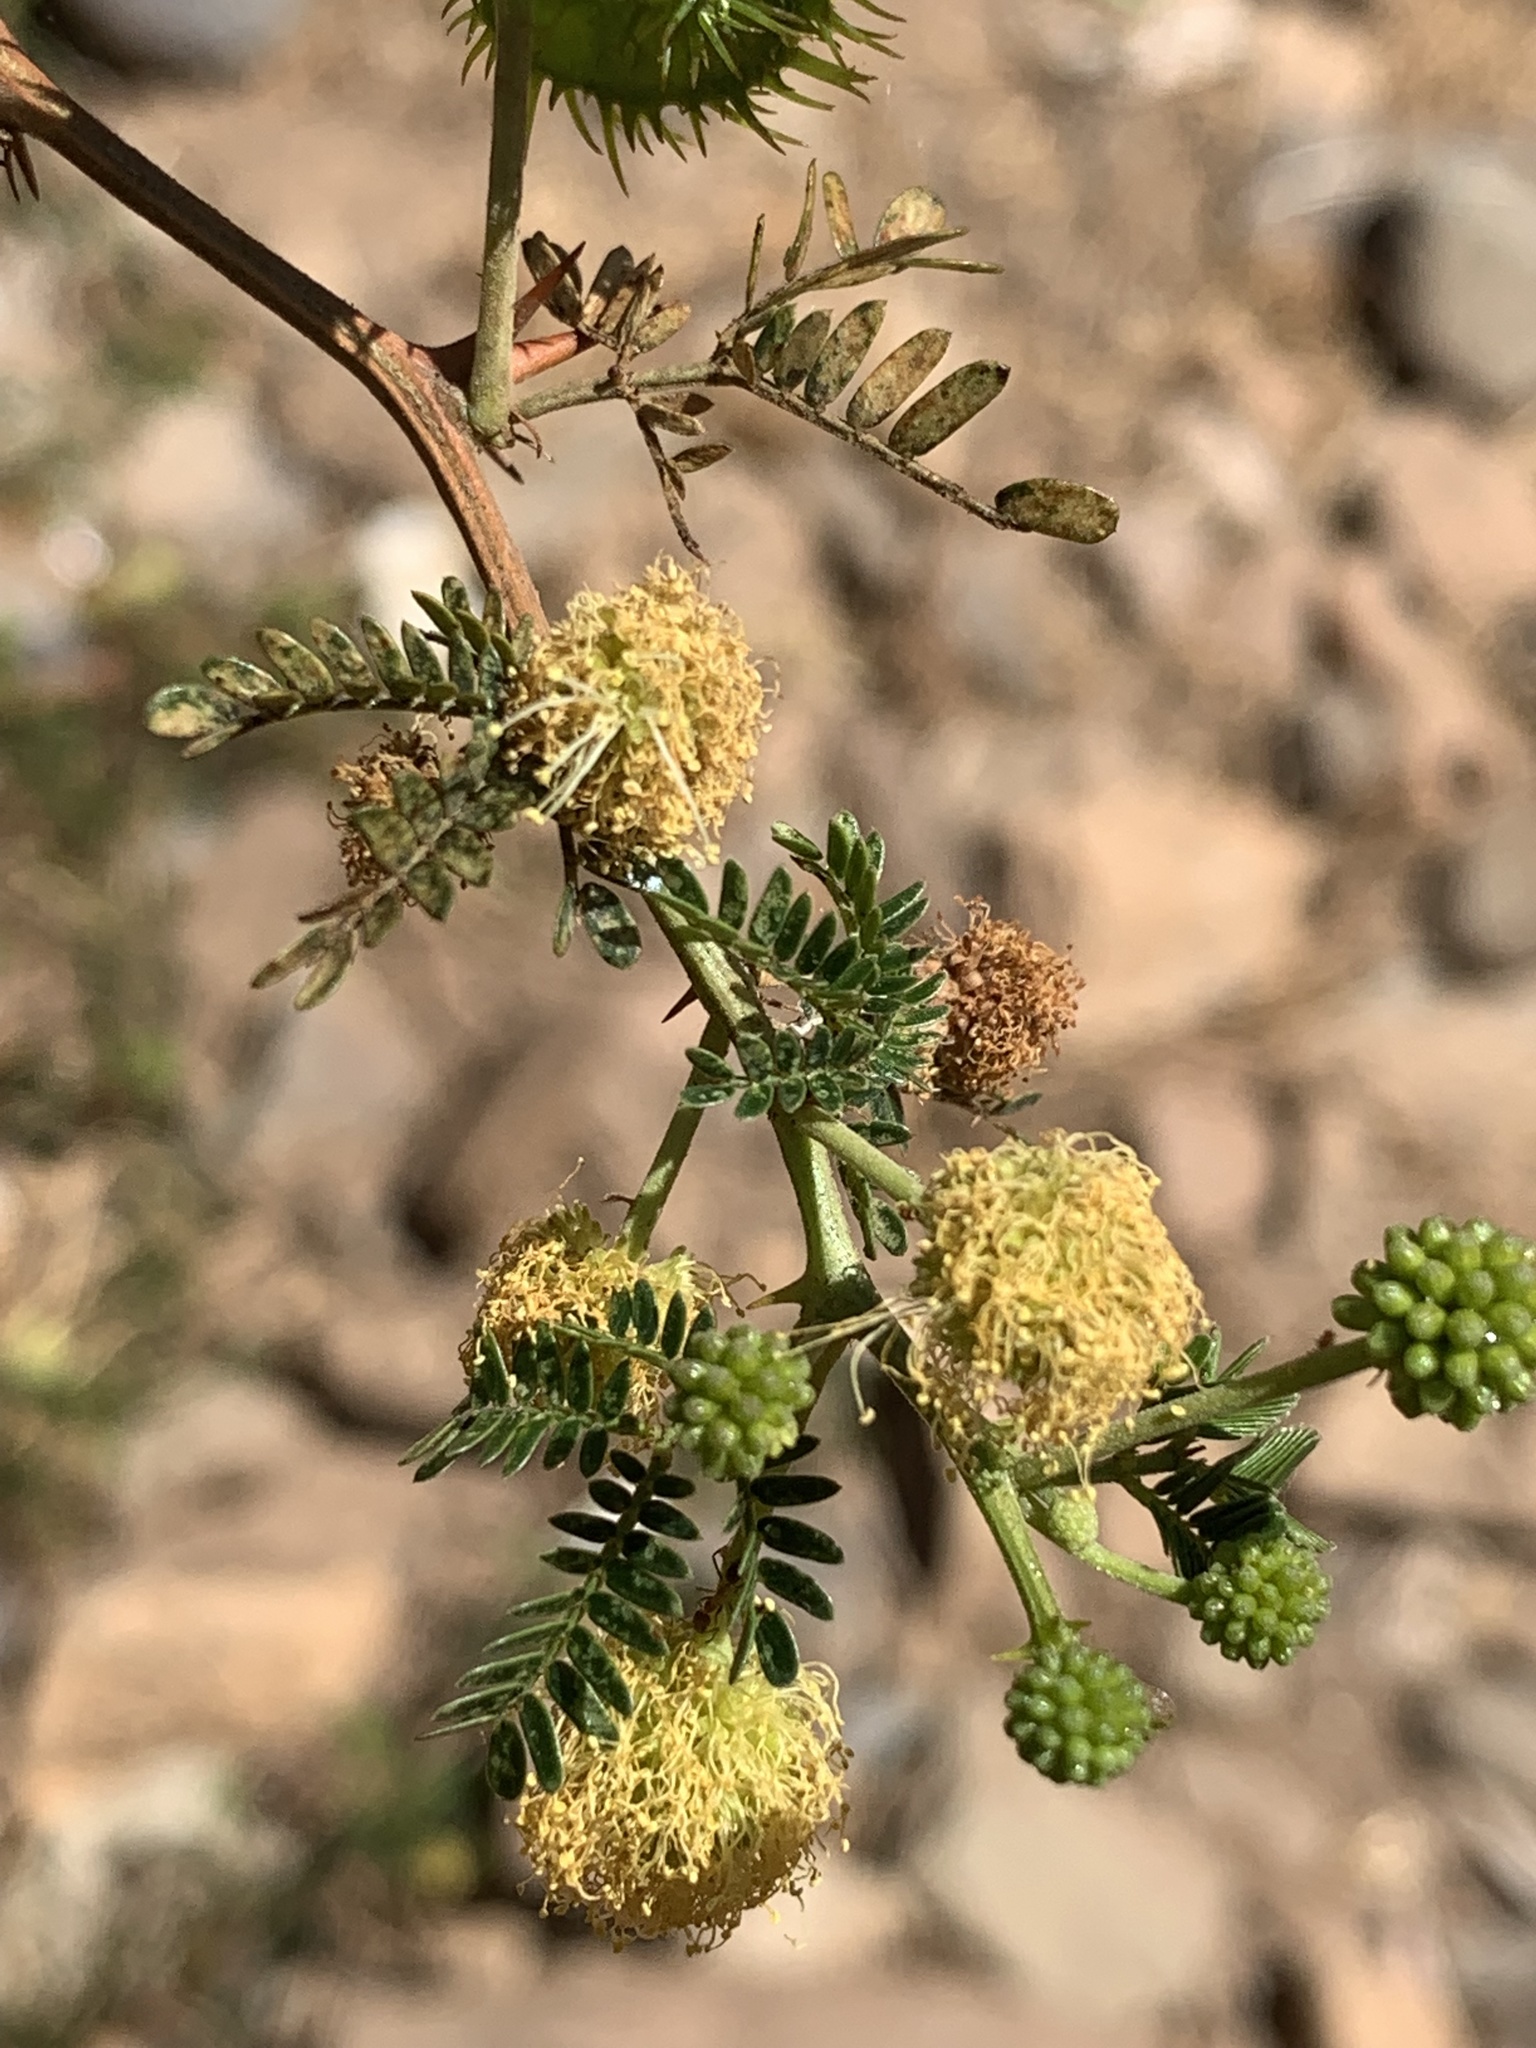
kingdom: Plantae
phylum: Tracheophyta
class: Magnoliopsida
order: Fabales
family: Fabaceae
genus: Mimosa
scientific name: Mimosa revoluta
